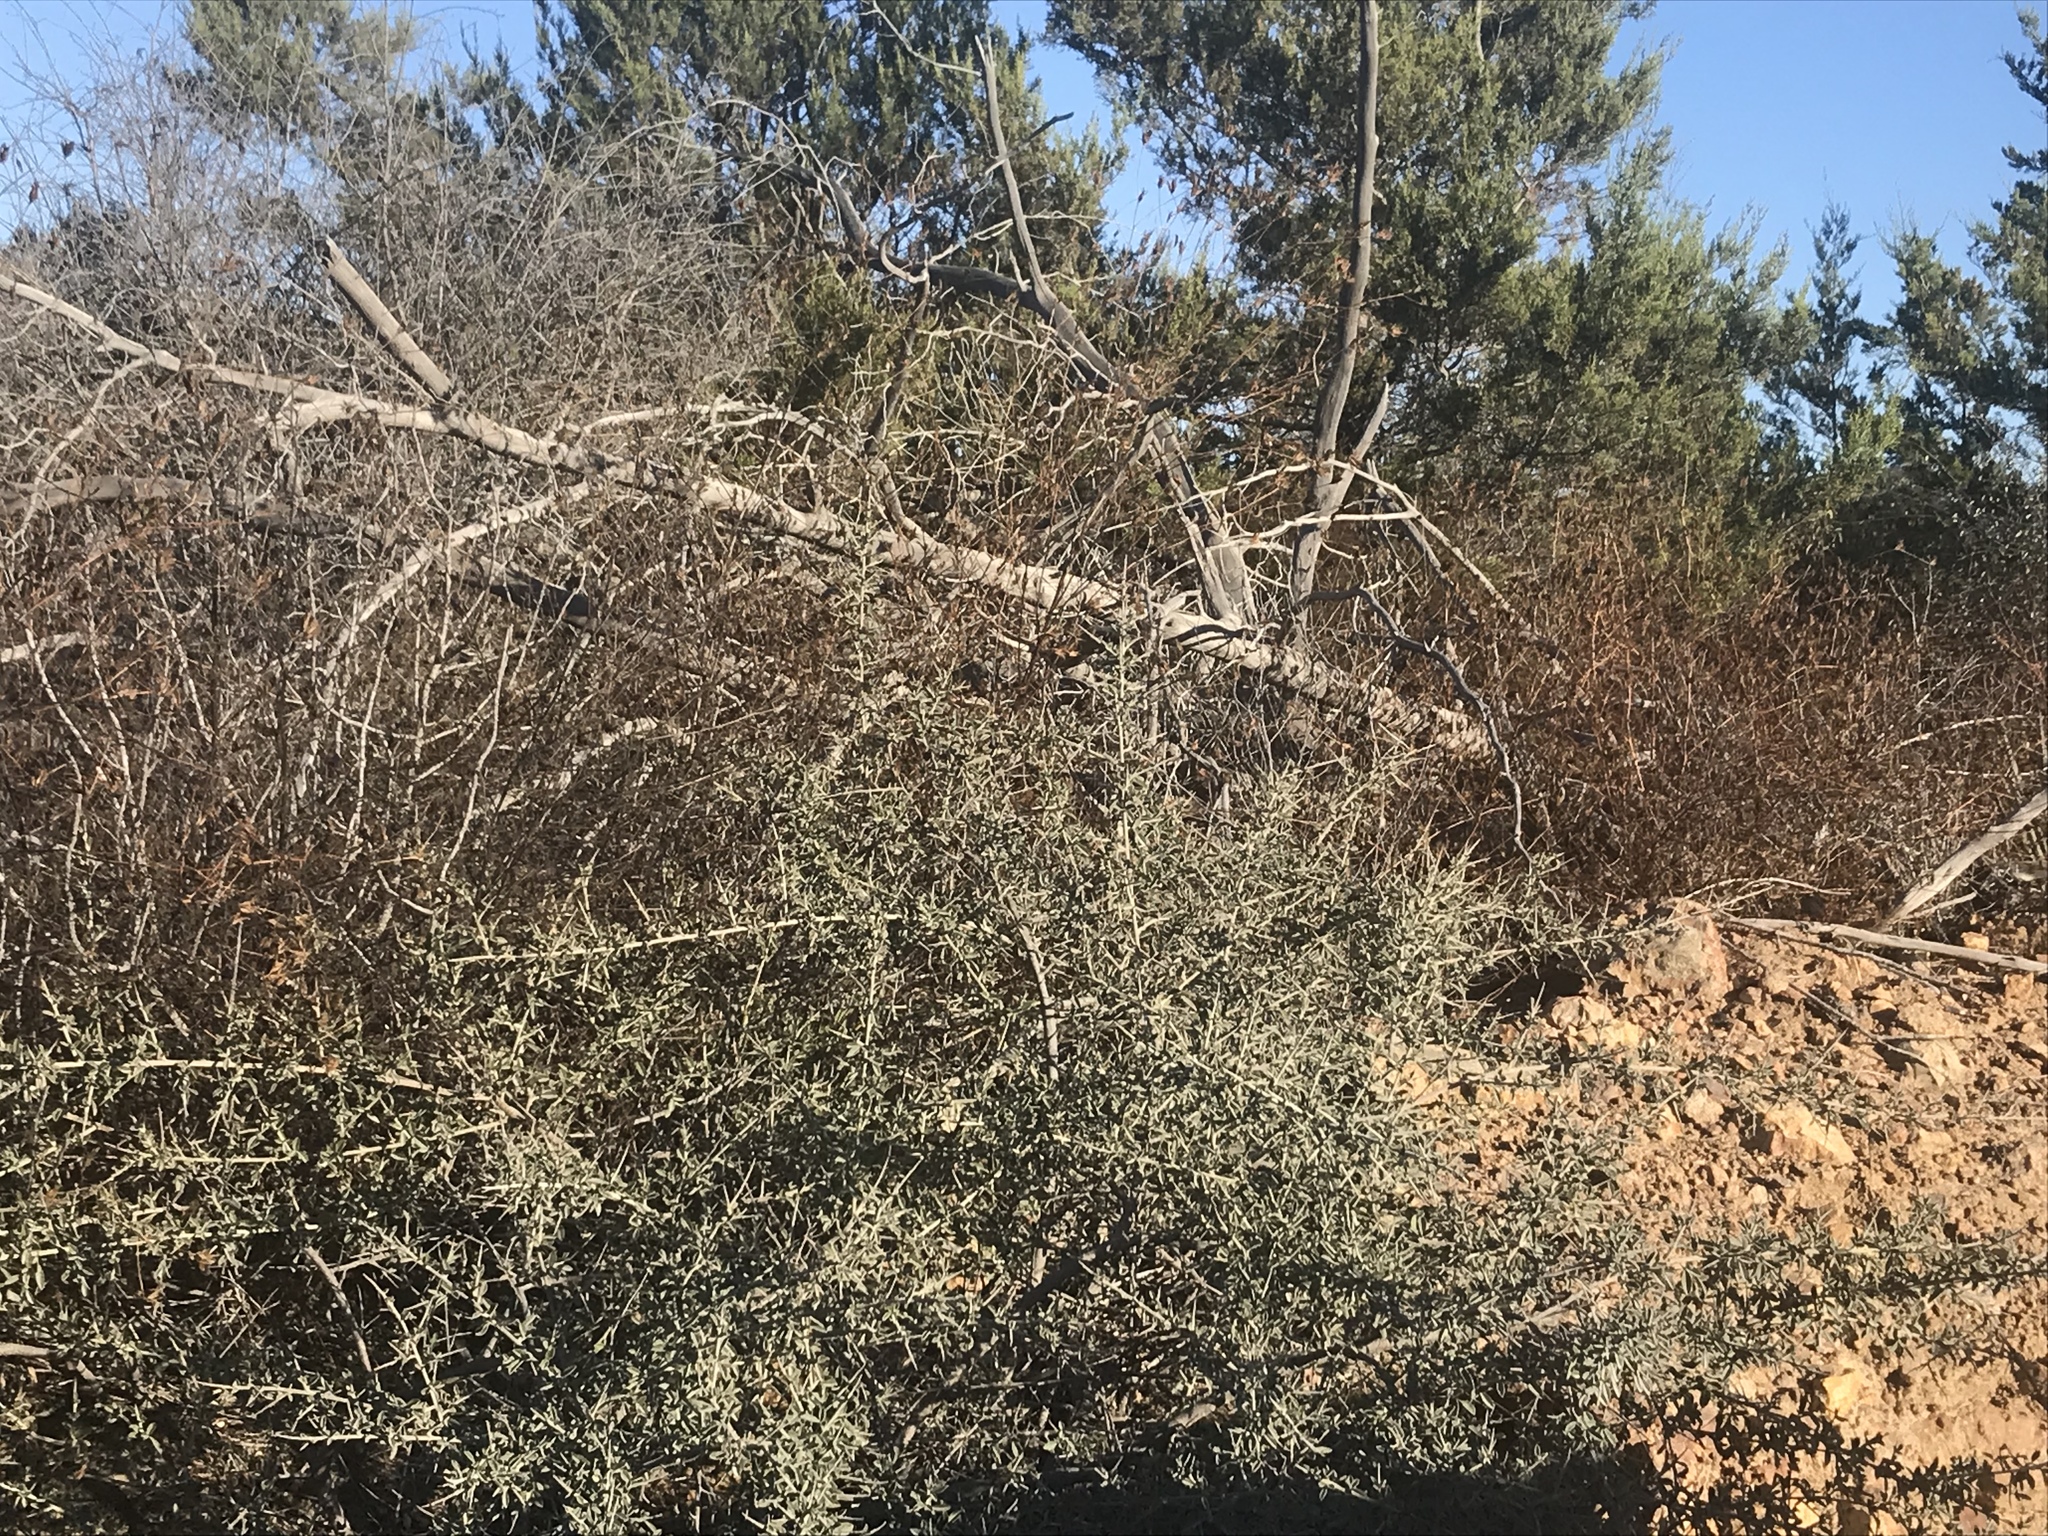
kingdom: Plantae
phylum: Tracheophyta
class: Magnoliopsida
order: Fabales
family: Fabaceae
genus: Pickeringia
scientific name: Pickeringia montana
